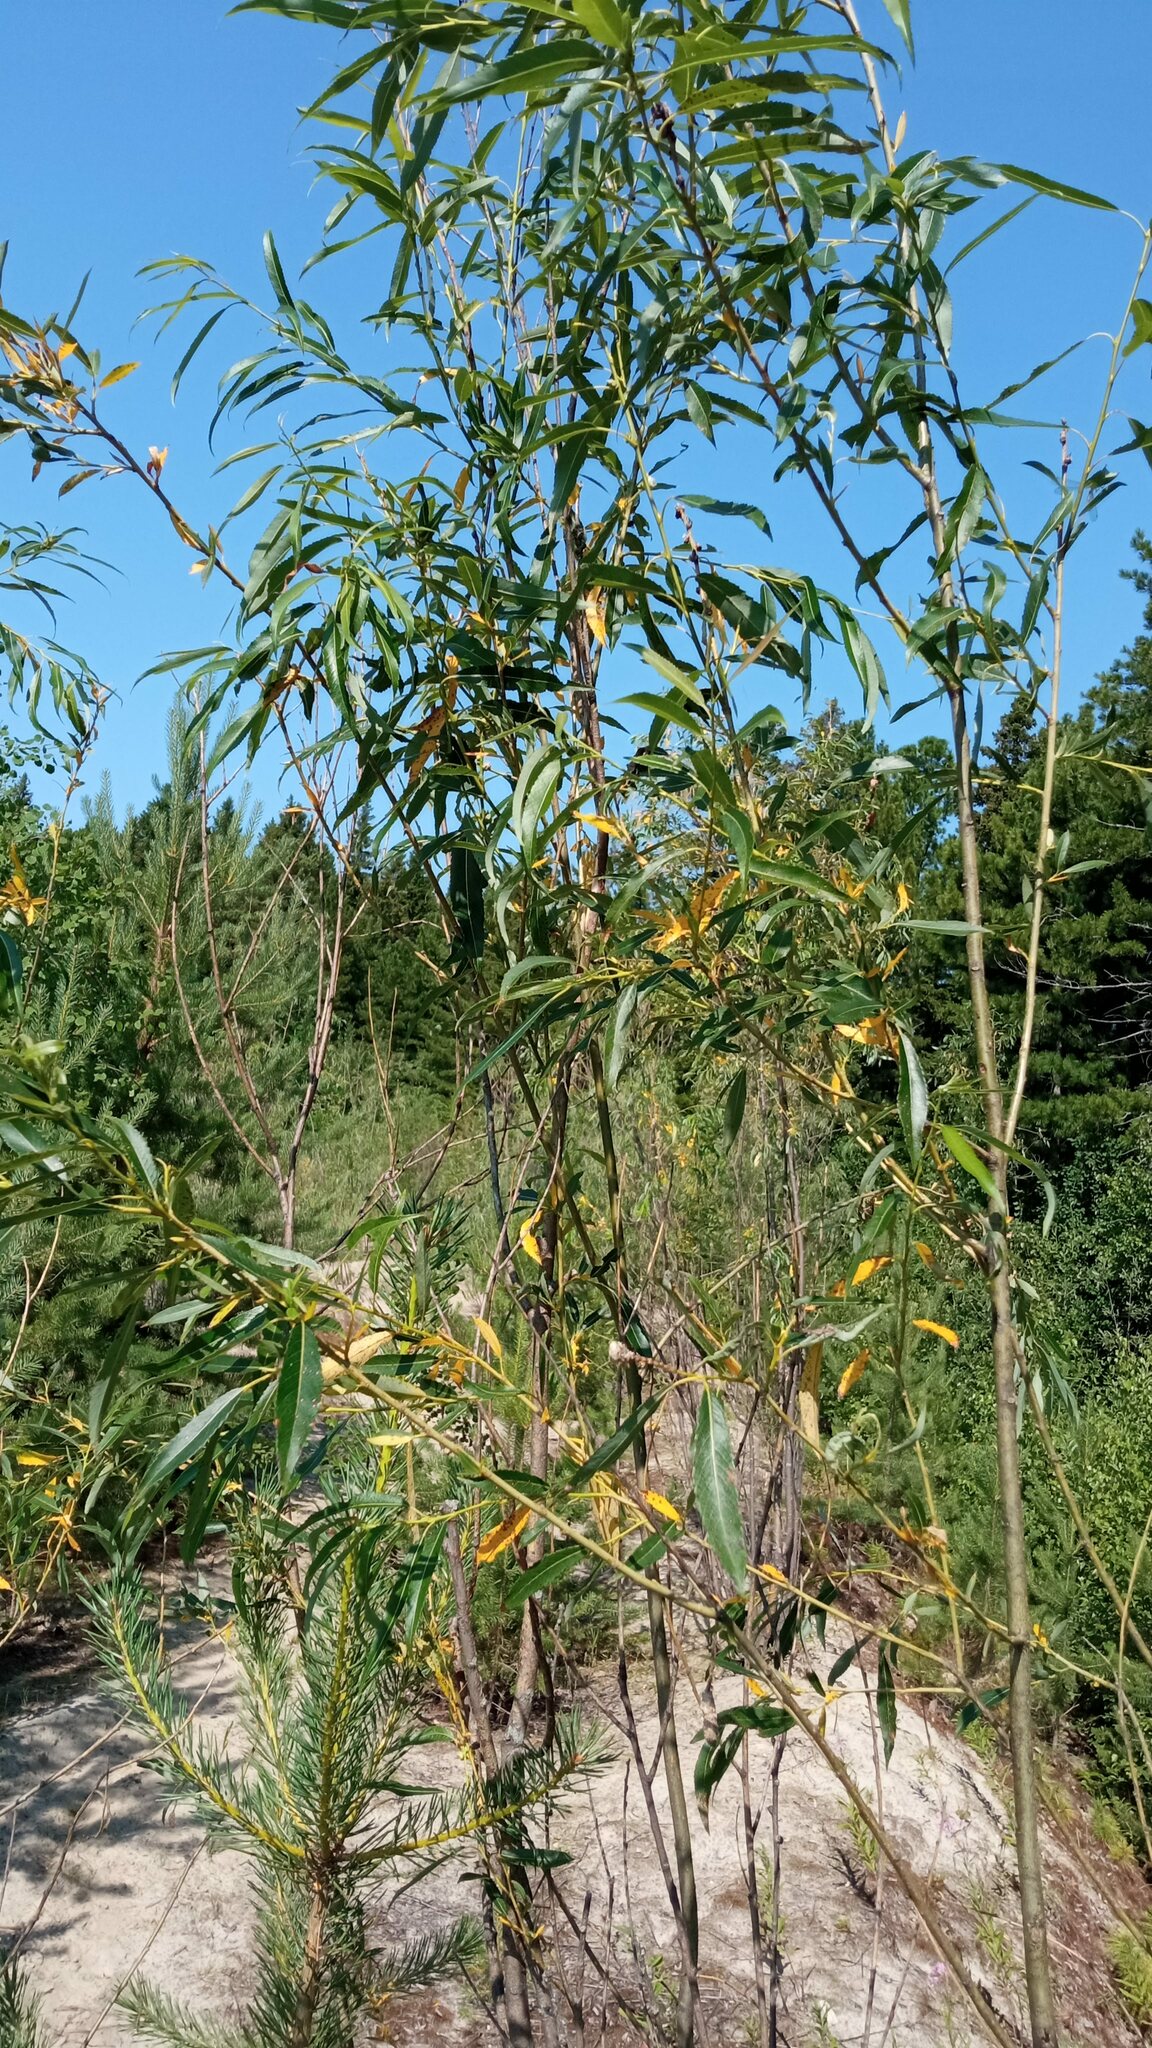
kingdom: Plantae
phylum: Tracheophyta
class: Magnoliopsida
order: Malpighiales
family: Salicaceae
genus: Salix
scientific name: Salix triandra
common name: Almond willow
